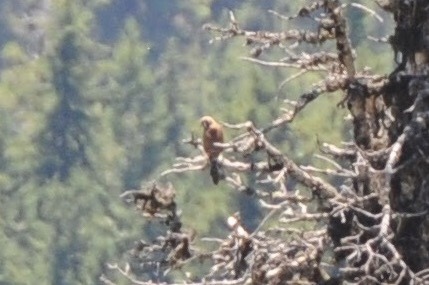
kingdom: Animalia
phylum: Chordata
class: Aves
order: Falconiformes
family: Falconidae
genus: Falco
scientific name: Falco sparverius
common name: American kestrel
